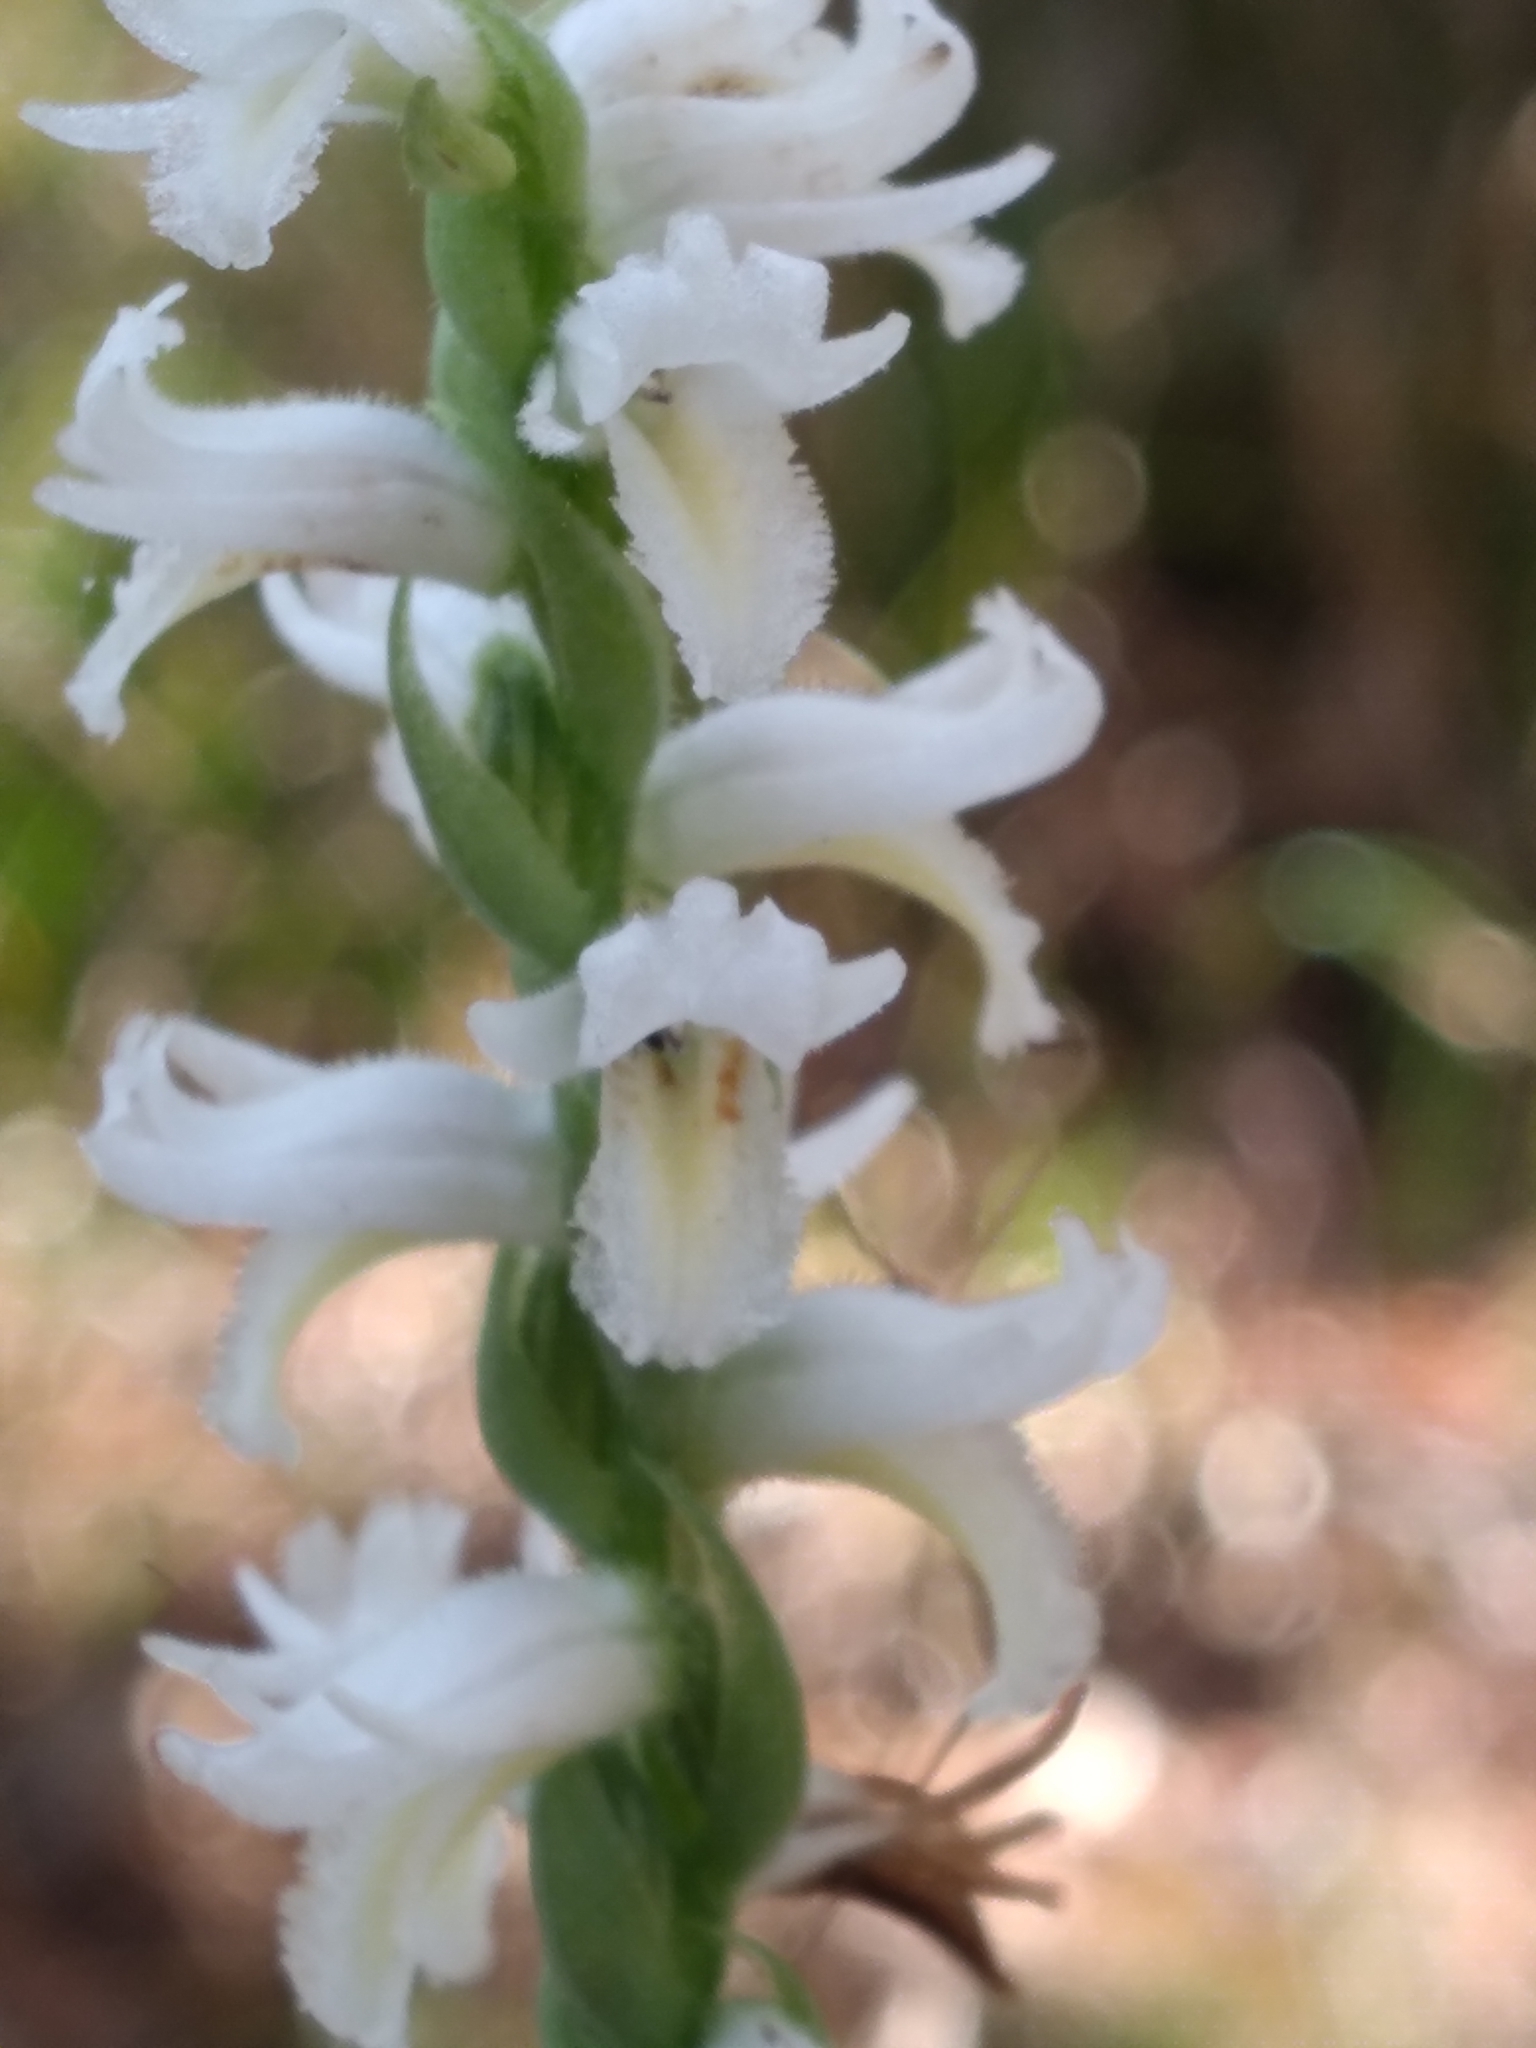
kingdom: Plantae
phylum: Tracheophyta
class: Liliopsida
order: Asparagales
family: Orchidaceae
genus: Spiranthes
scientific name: Spiranthes triloba
